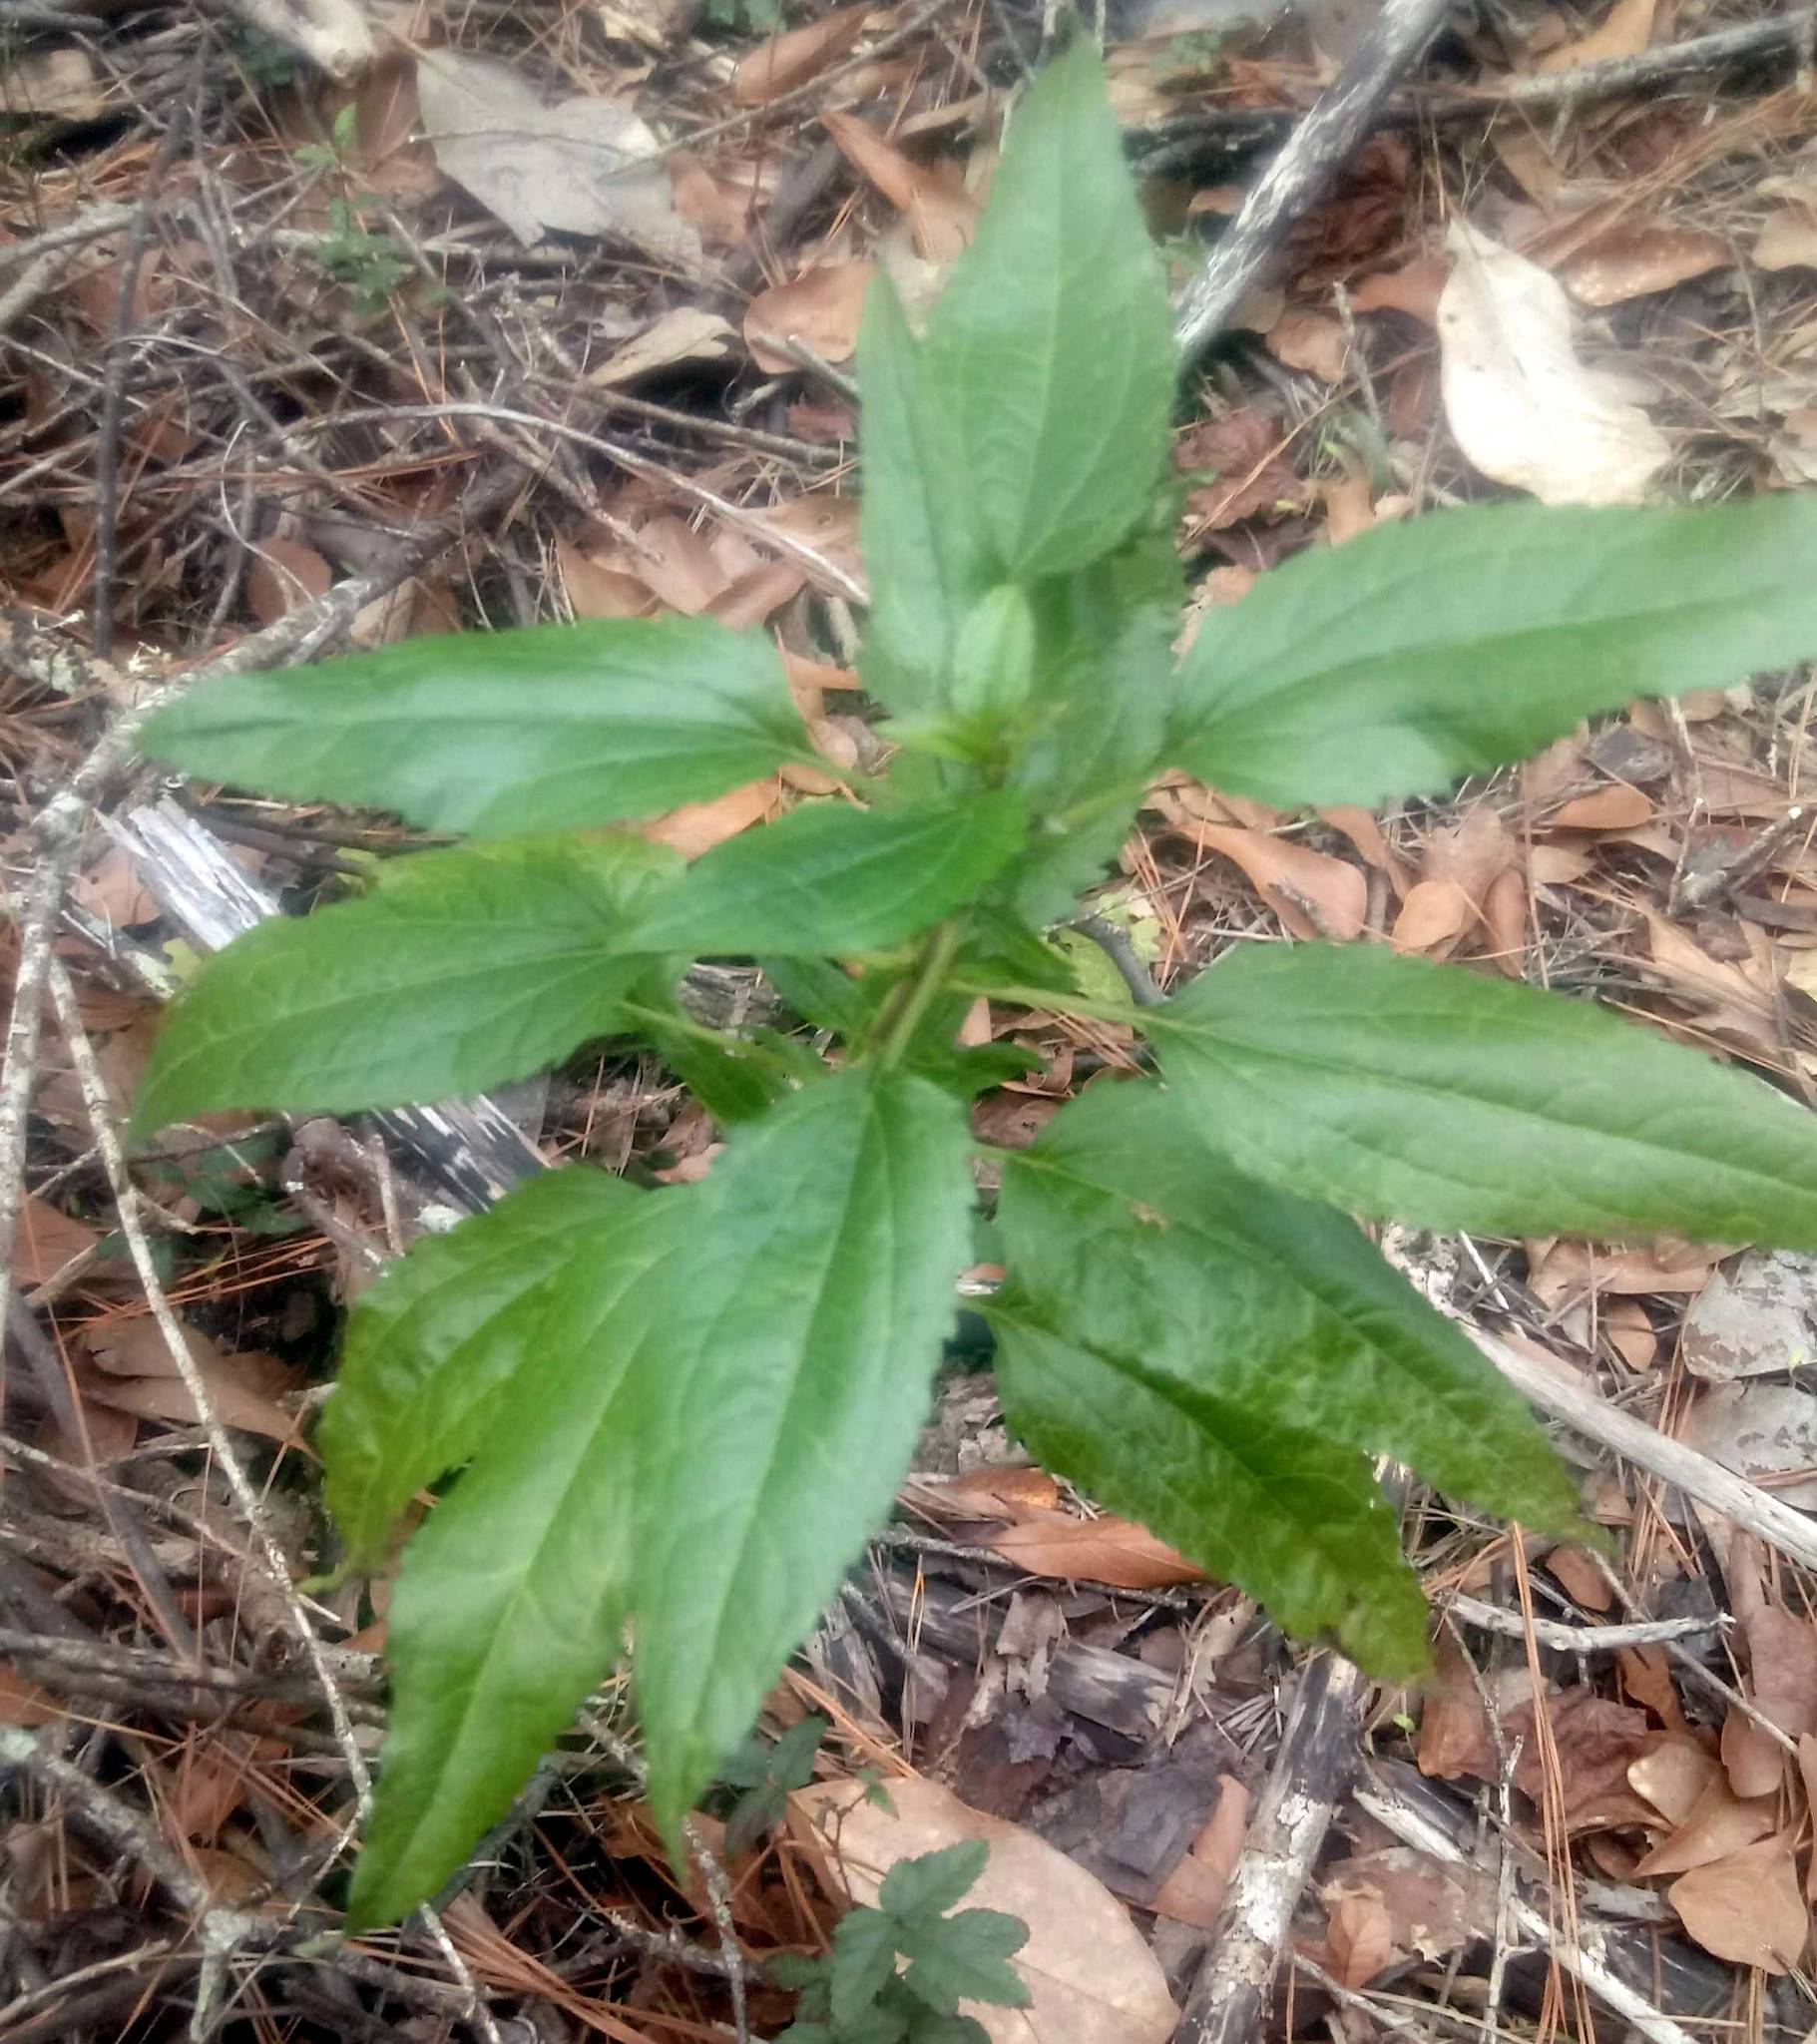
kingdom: Plantae
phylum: Tracheophyta
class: Magnoliopsida
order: Asterales
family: Asteraceae
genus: Eupatorium
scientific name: Eupatorium serotinum
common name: Late boneset
